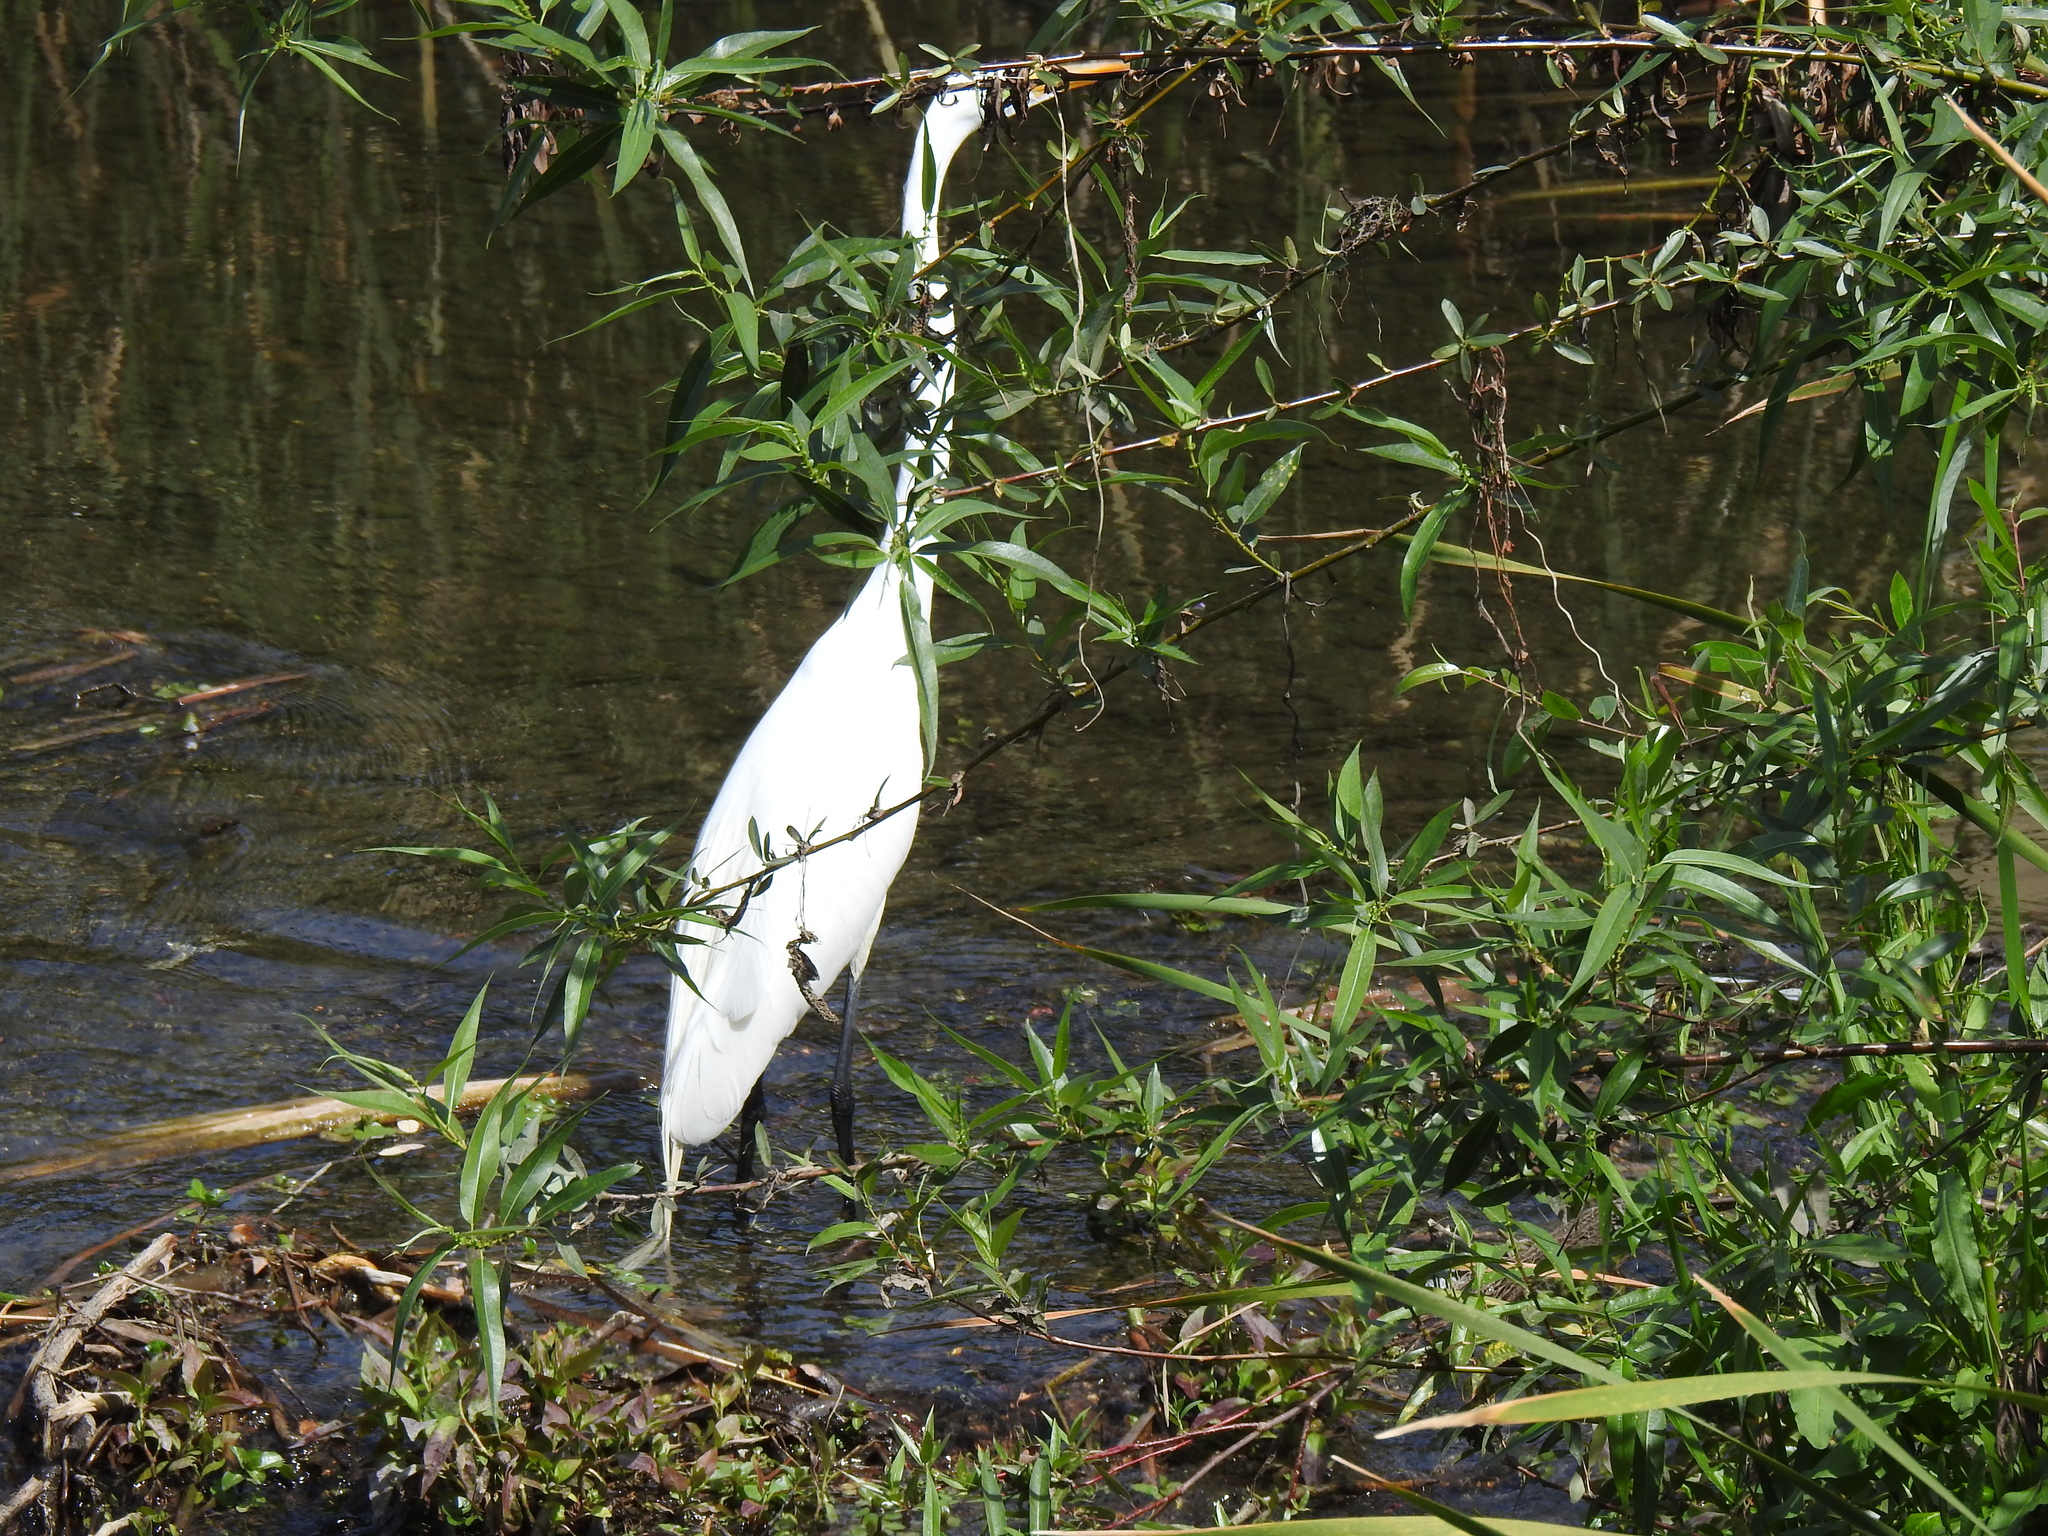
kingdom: Animalia
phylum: Chordata
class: Aves
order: Pelecaniformes
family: Ardeidae
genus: Ardea
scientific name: Ardea alba
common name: Great egret
